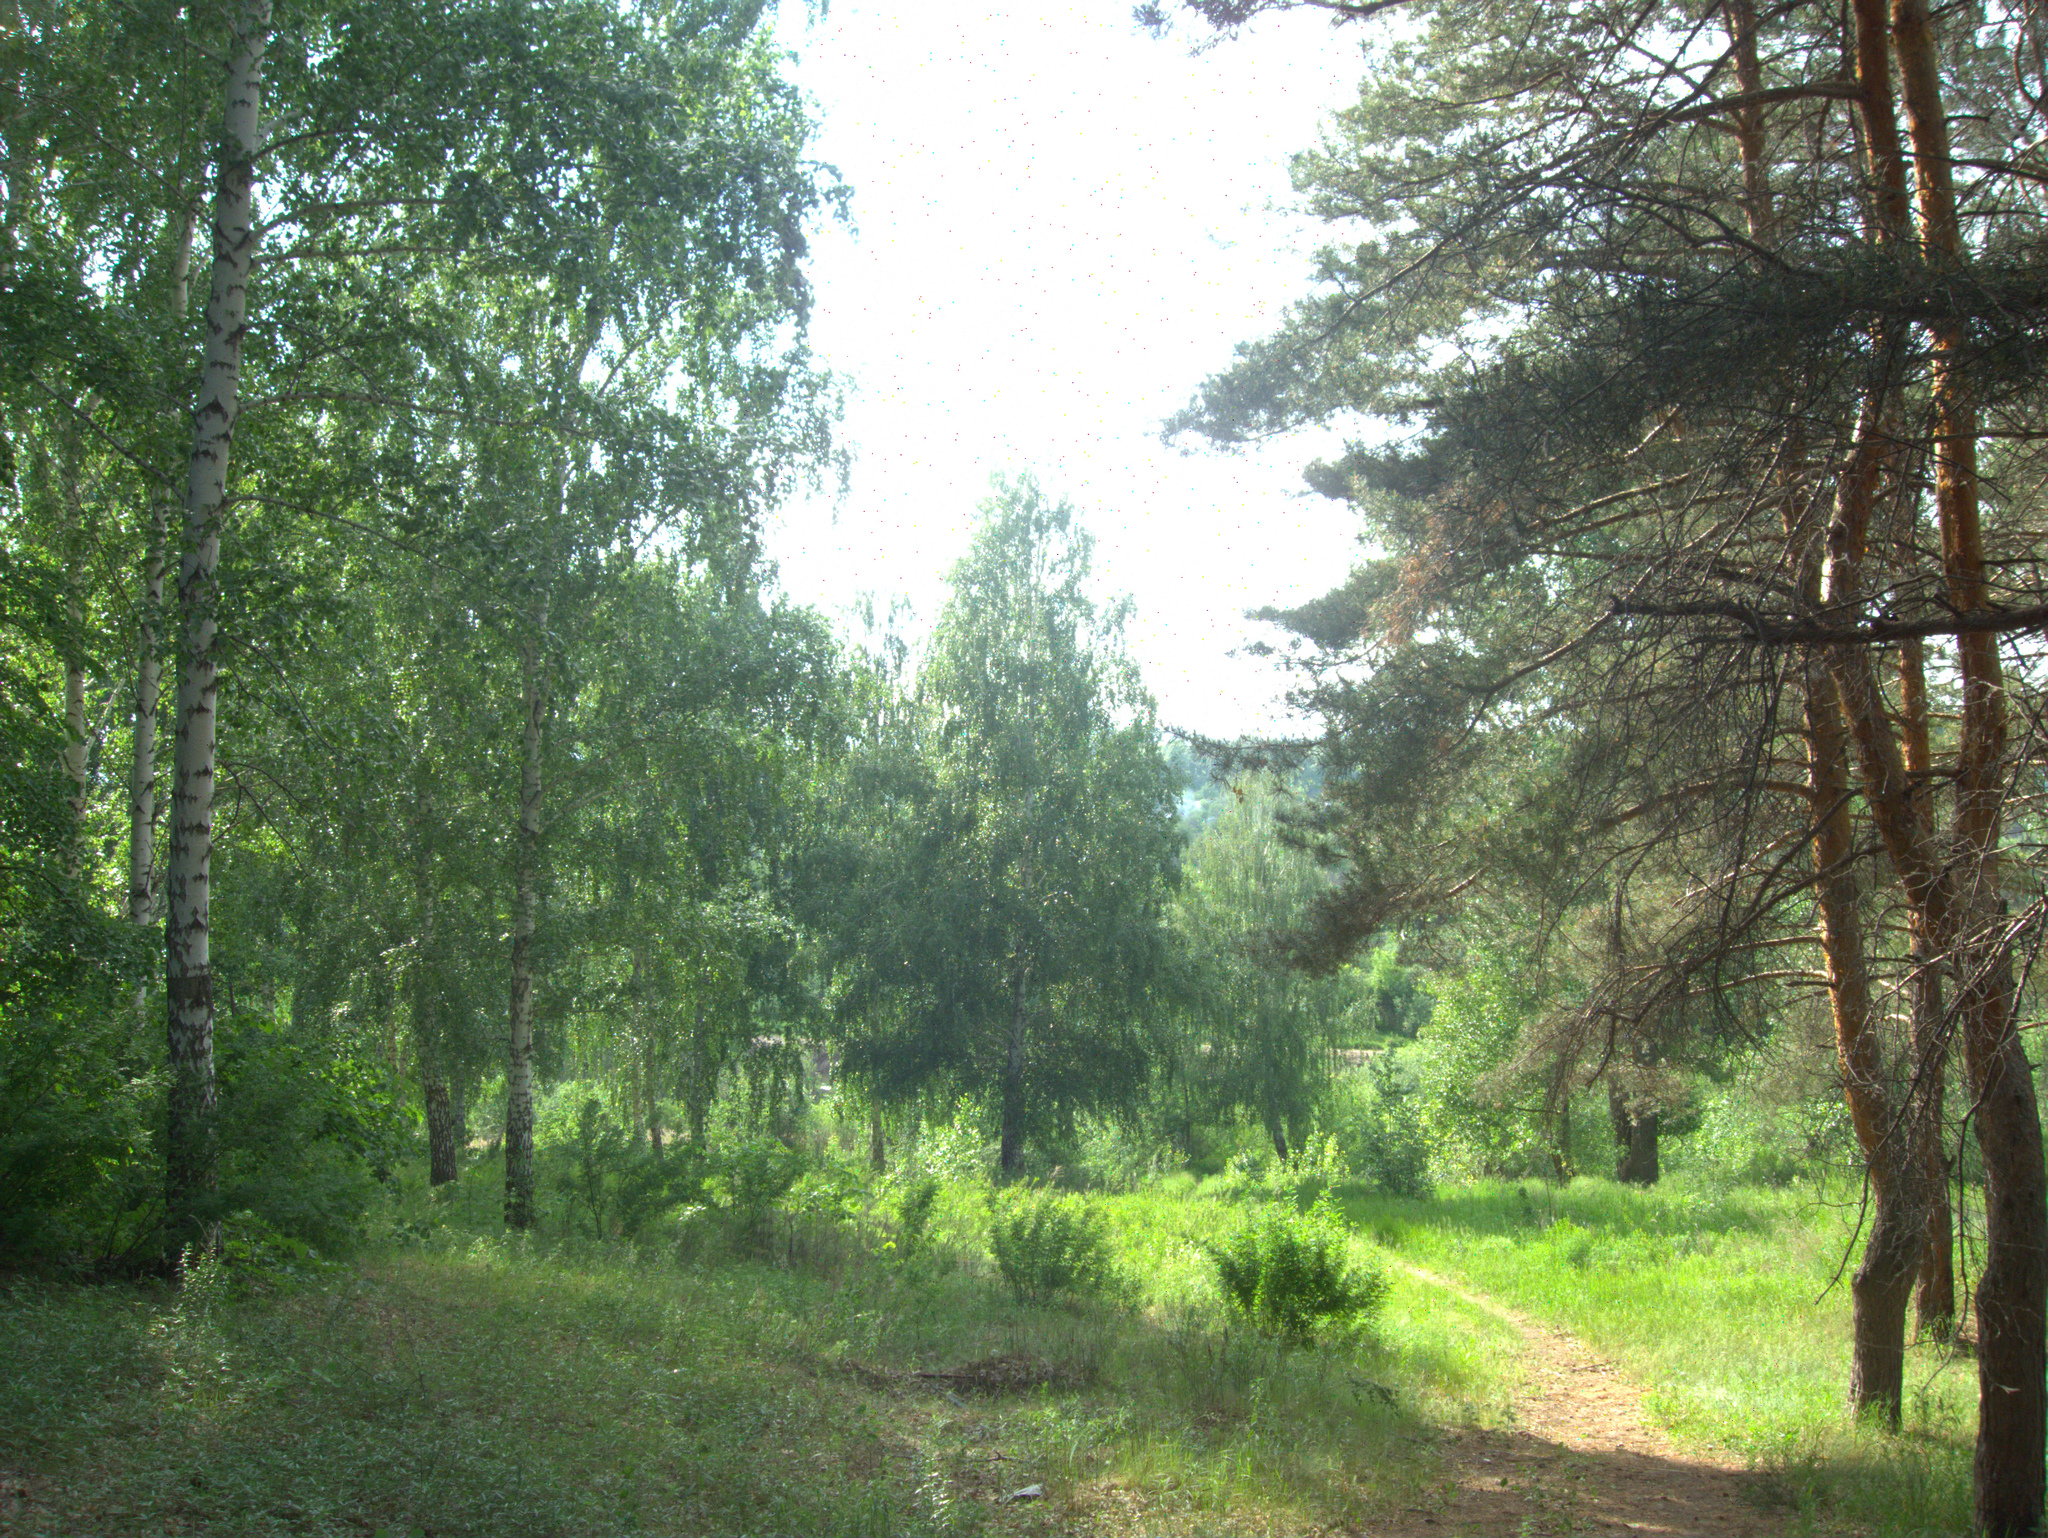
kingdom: Plantae
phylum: Tracheophyta
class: Pinopsida
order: Pinales
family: Pinaceae
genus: Pinus
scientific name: Pinus sylvestris
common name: Scots pine
